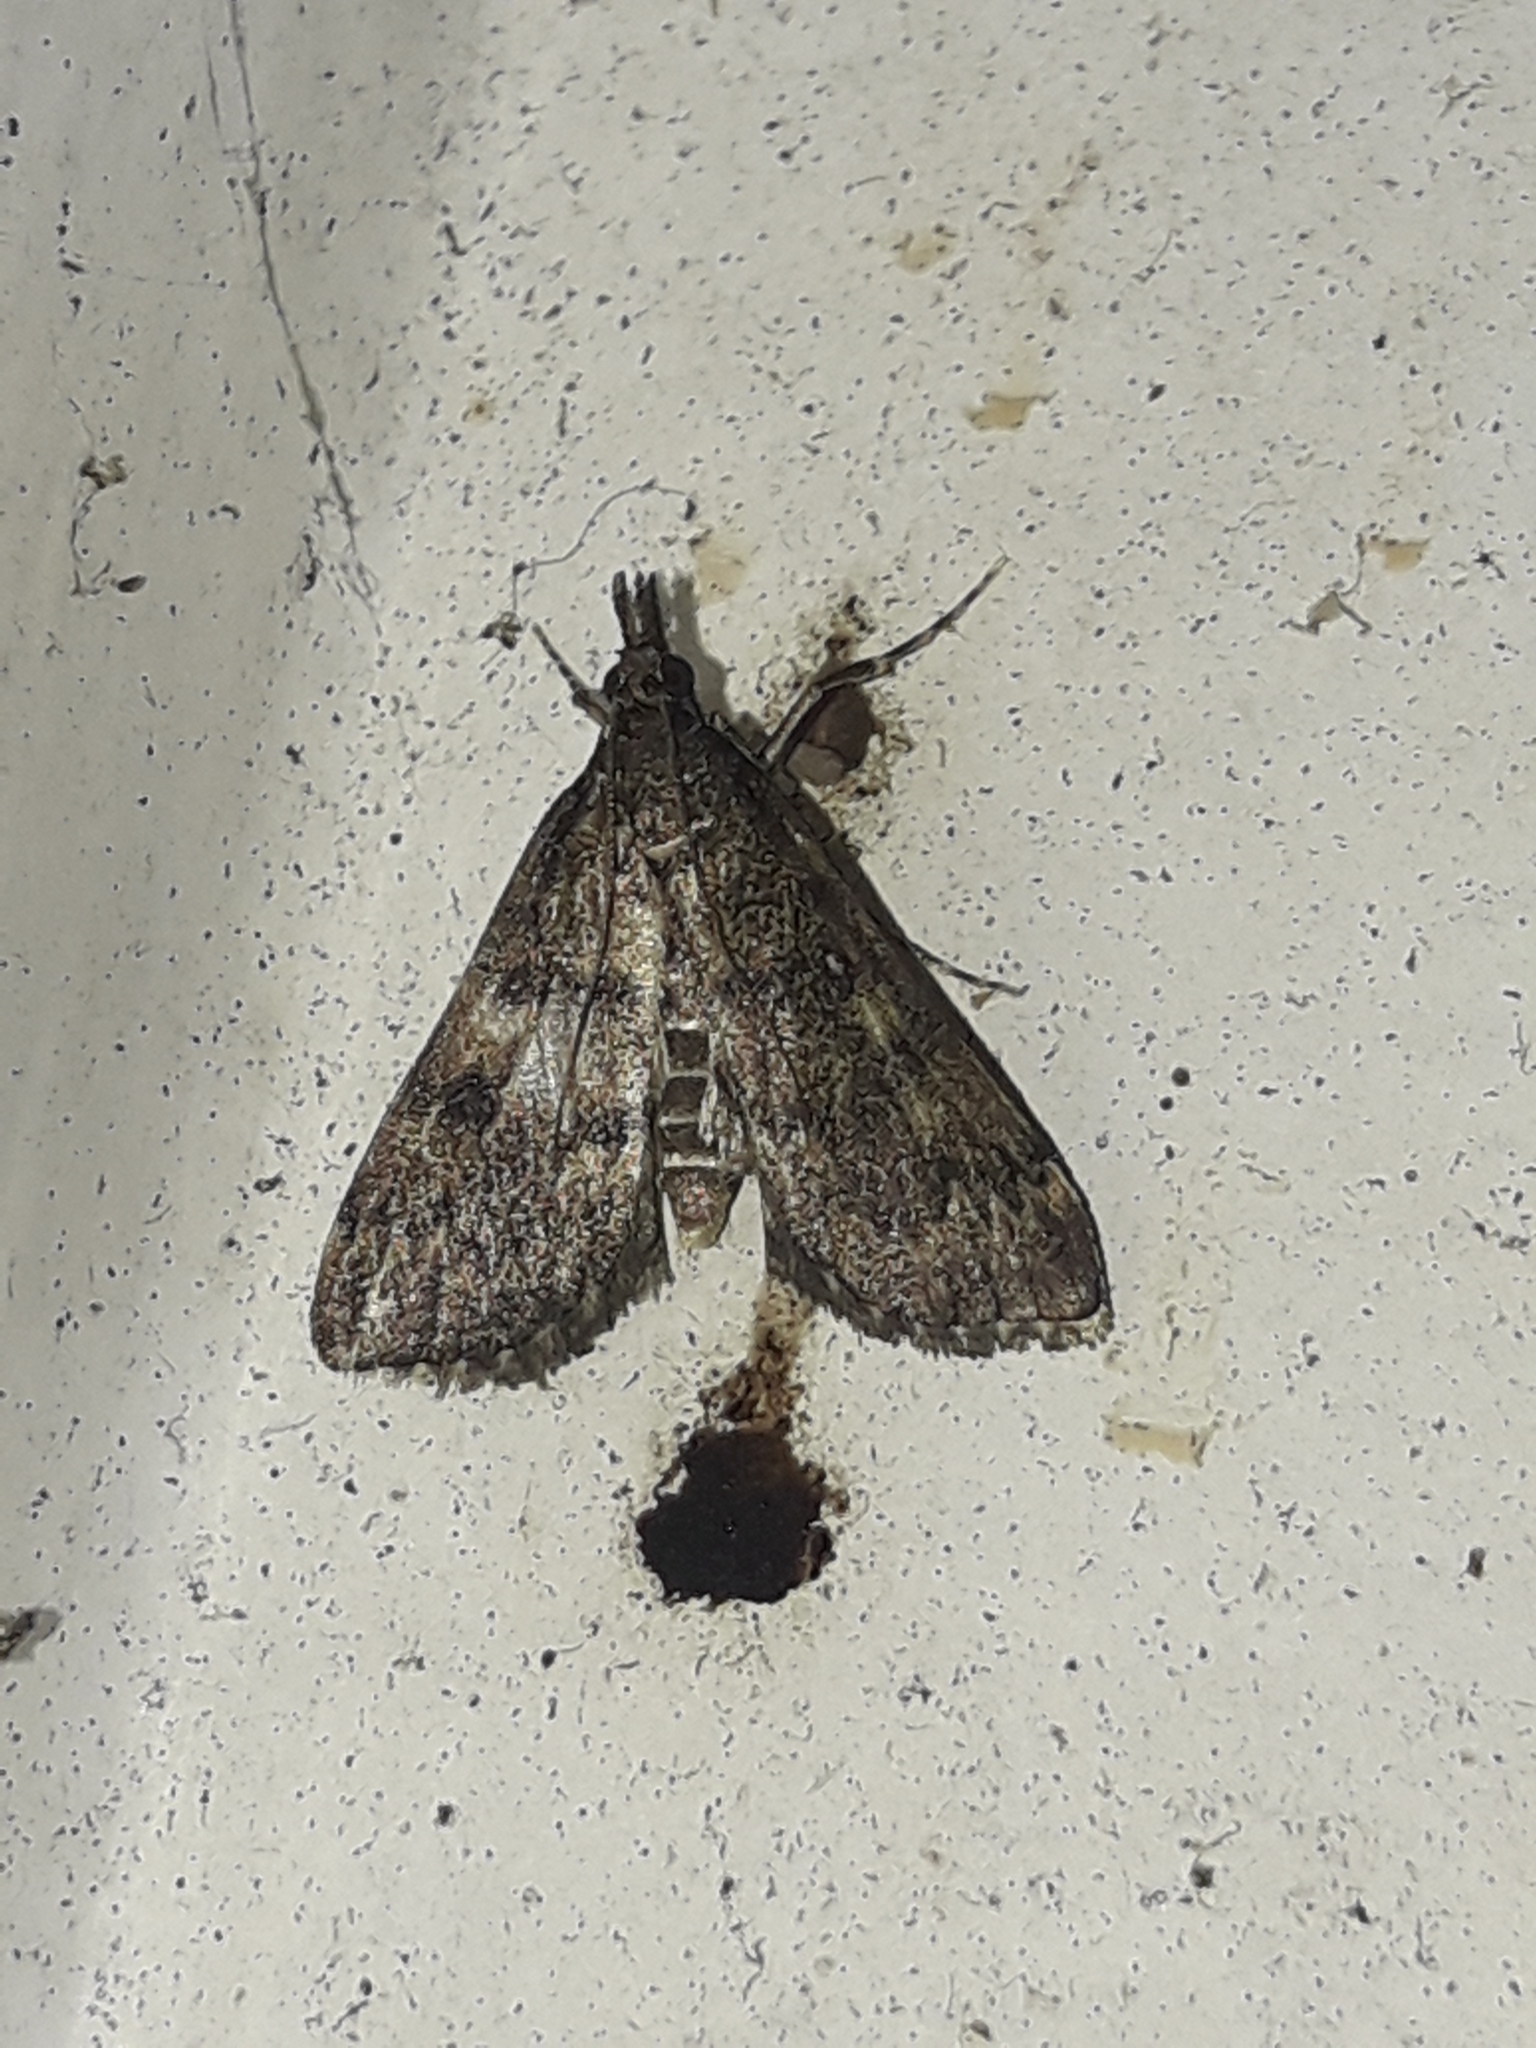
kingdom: Animalia
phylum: Arthropoda
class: Insecta
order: Lepidoptera
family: Crambidae
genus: Loxostege
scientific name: Loxostege Proternia philocapna
